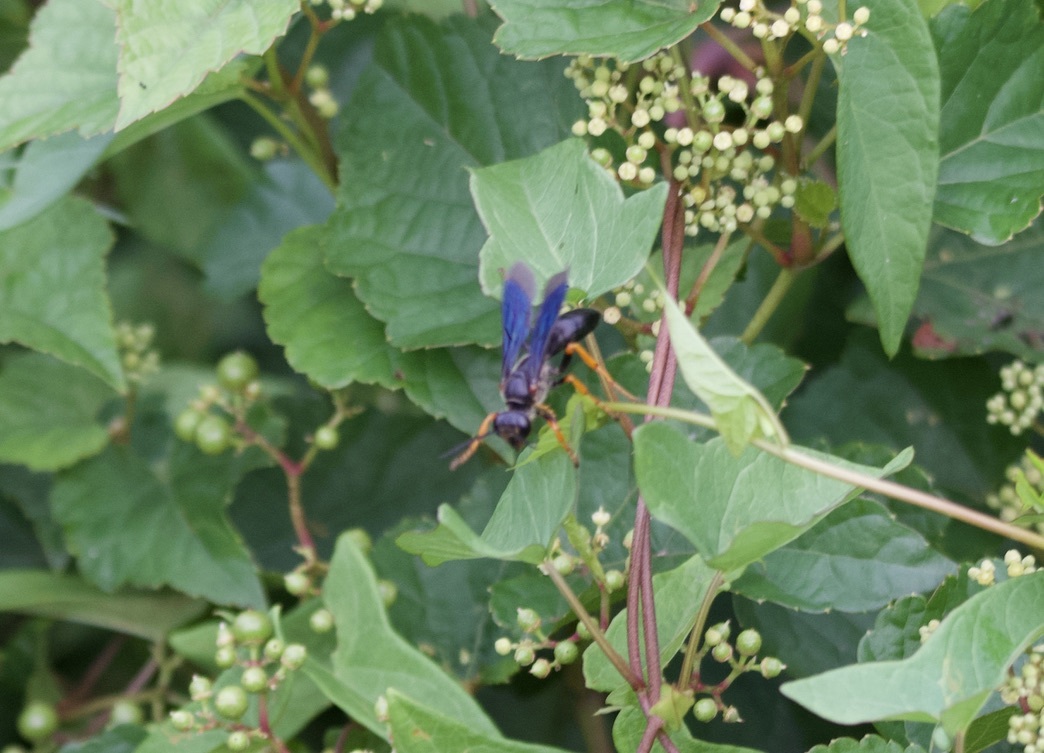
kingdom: Animalia
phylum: Arthropoda
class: Insecta
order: Hymenoptera
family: Sphecidae
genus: Sphex
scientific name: Sphex nudus
